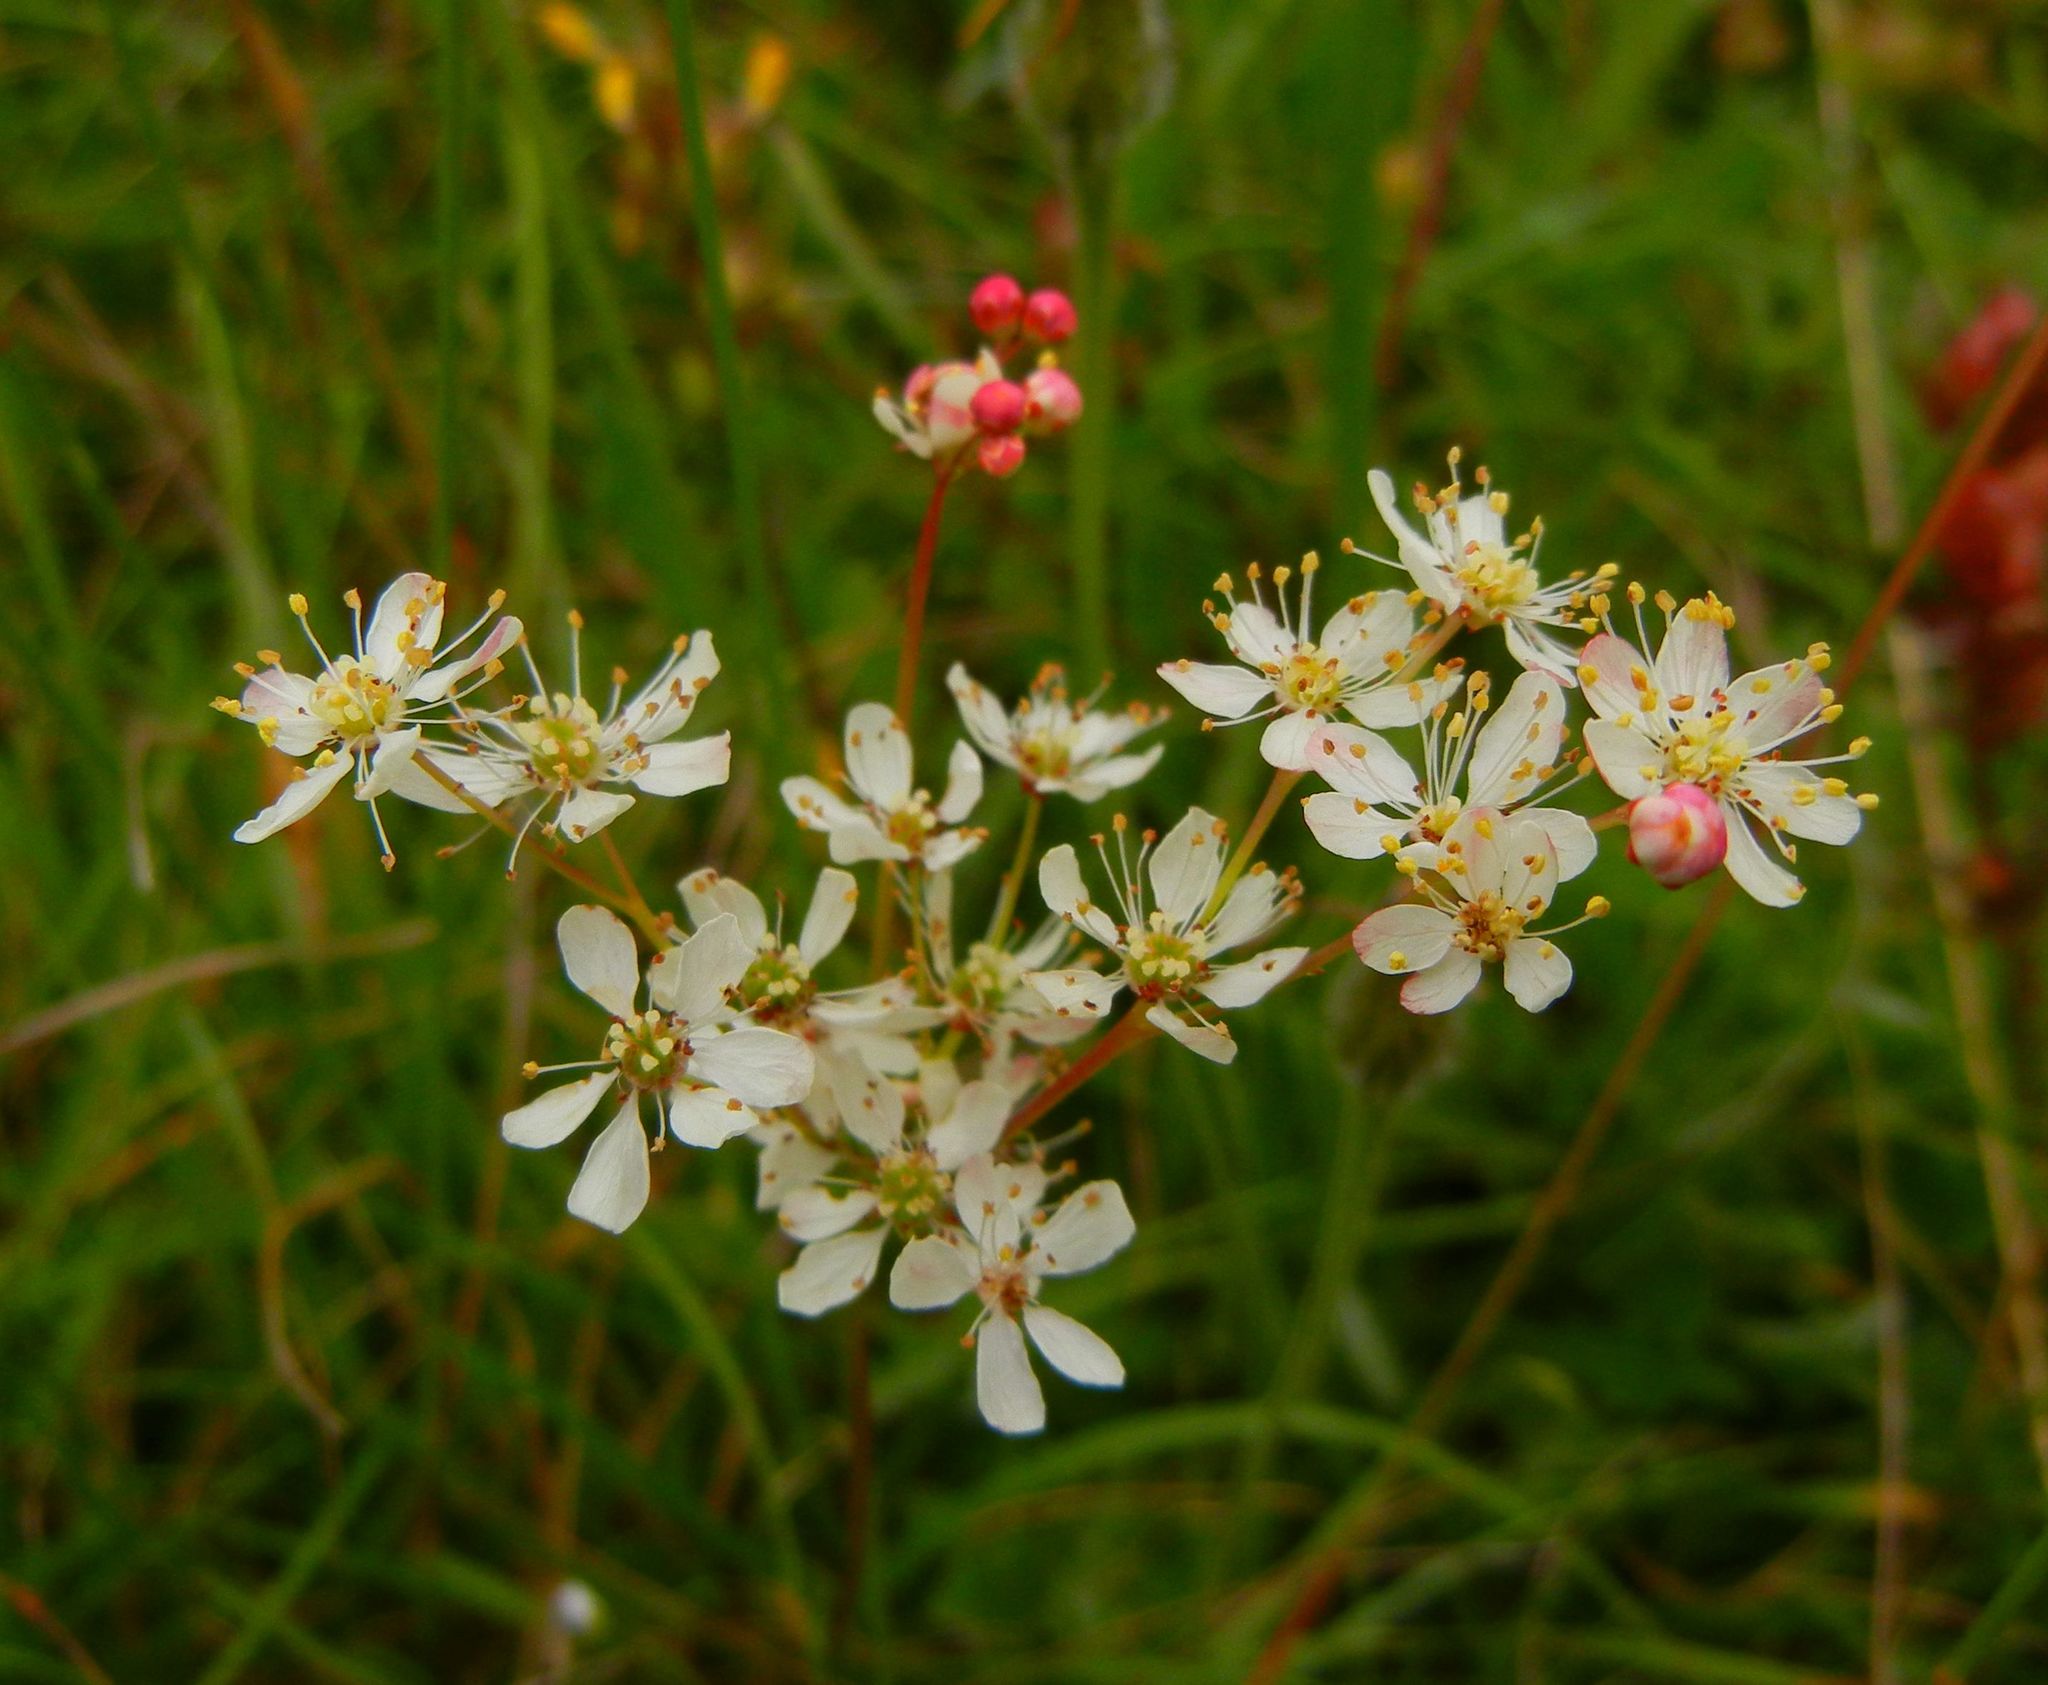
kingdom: Plantae
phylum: Tracheophyta
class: Magnoliopsida
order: Rosales
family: Rosaceae
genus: Filipendula
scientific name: Filipendula vulgaris
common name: Dropwort
